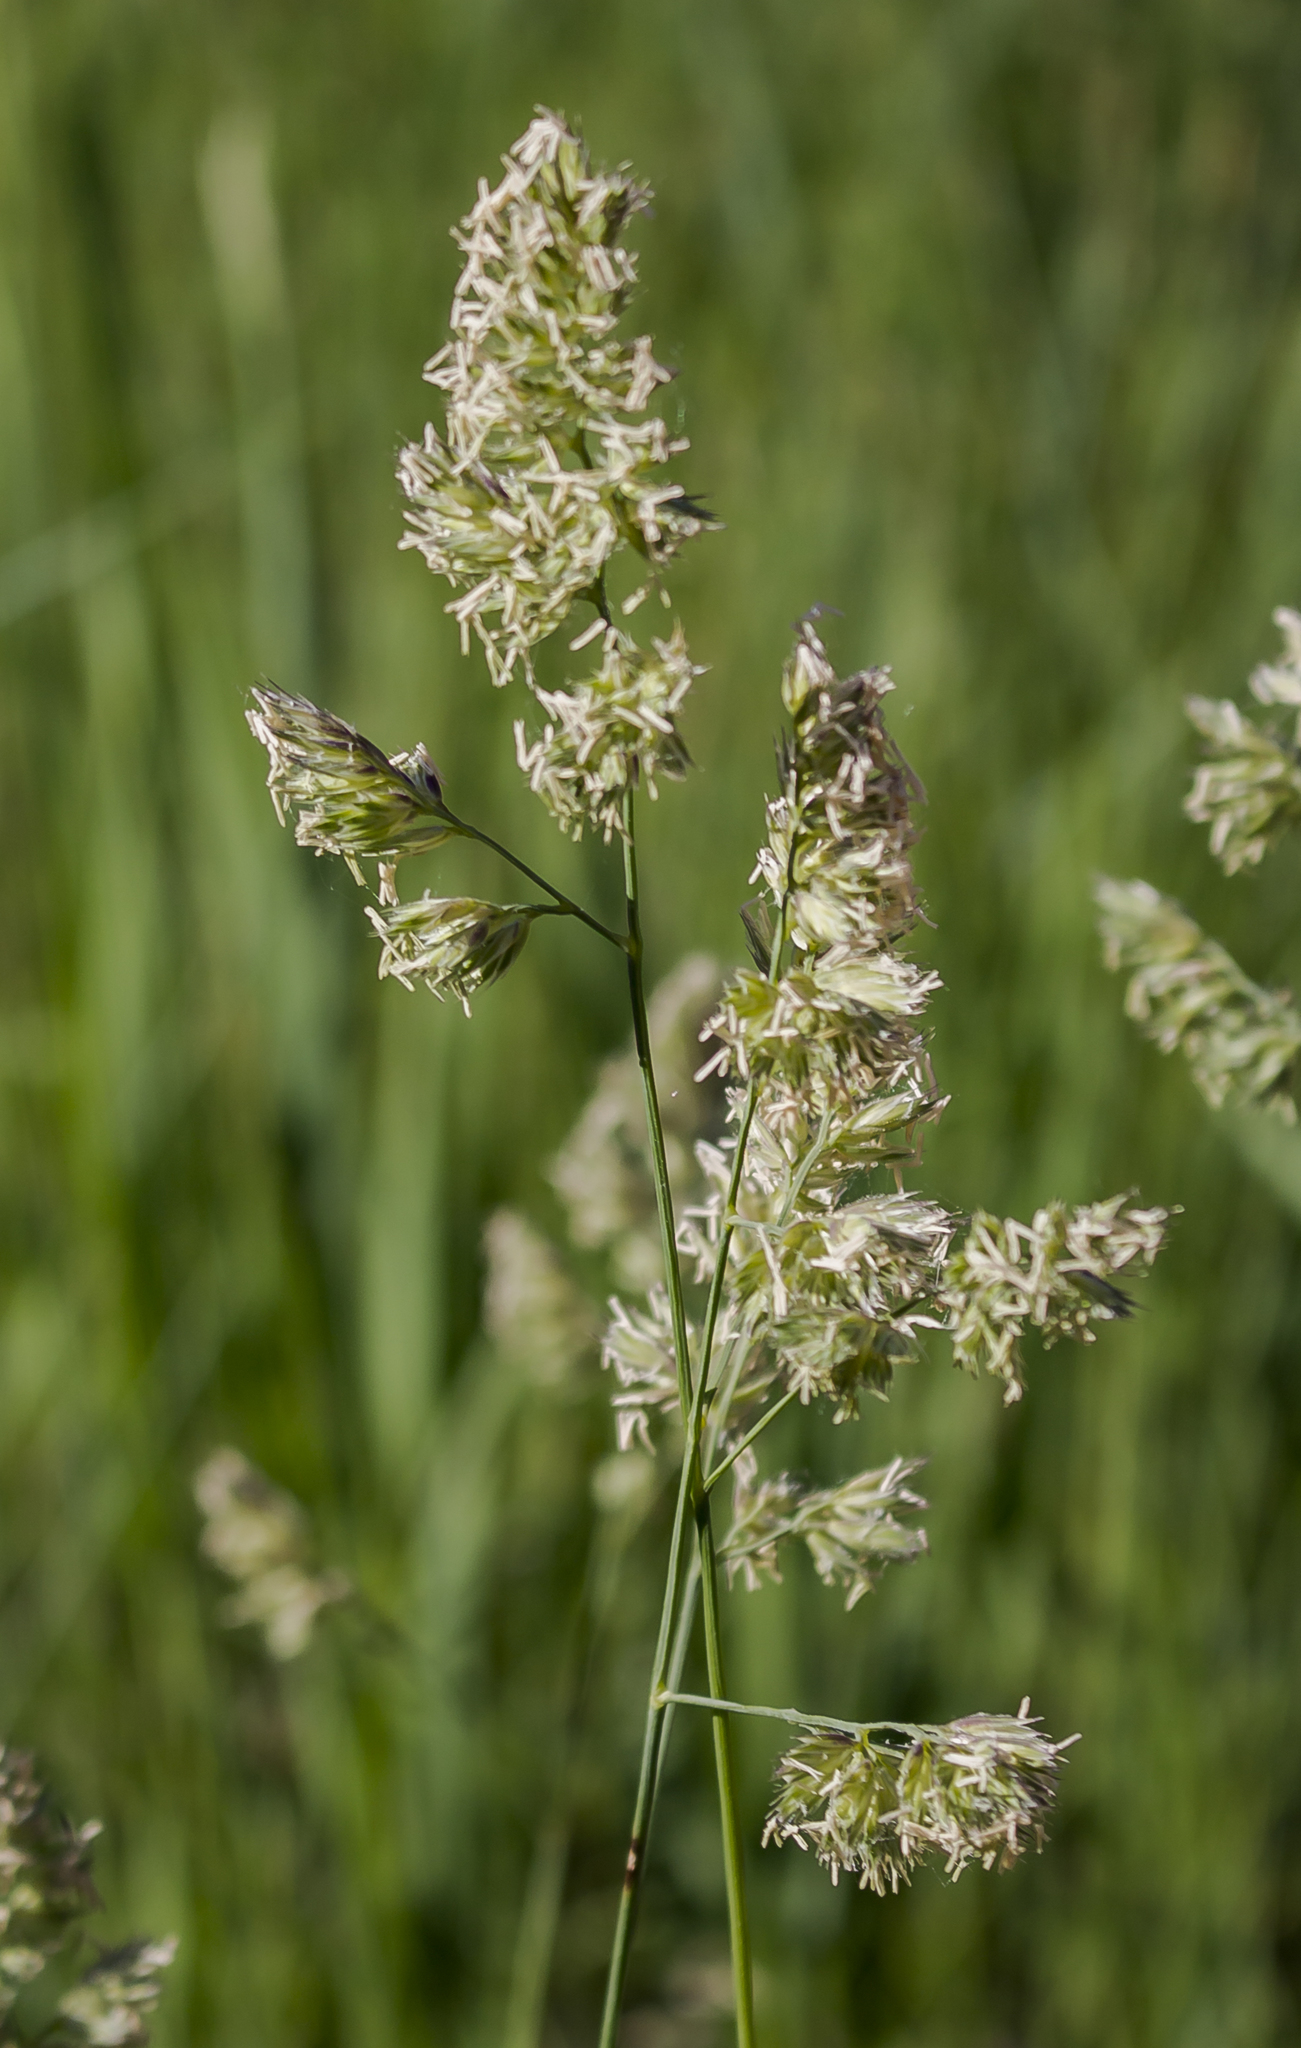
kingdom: Plantae
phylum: Tracheophyta
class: Liliopsida
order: Poales
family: Poaceae
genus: Dactylis
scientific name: Dactylis glomerata
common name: Orchardgrass
